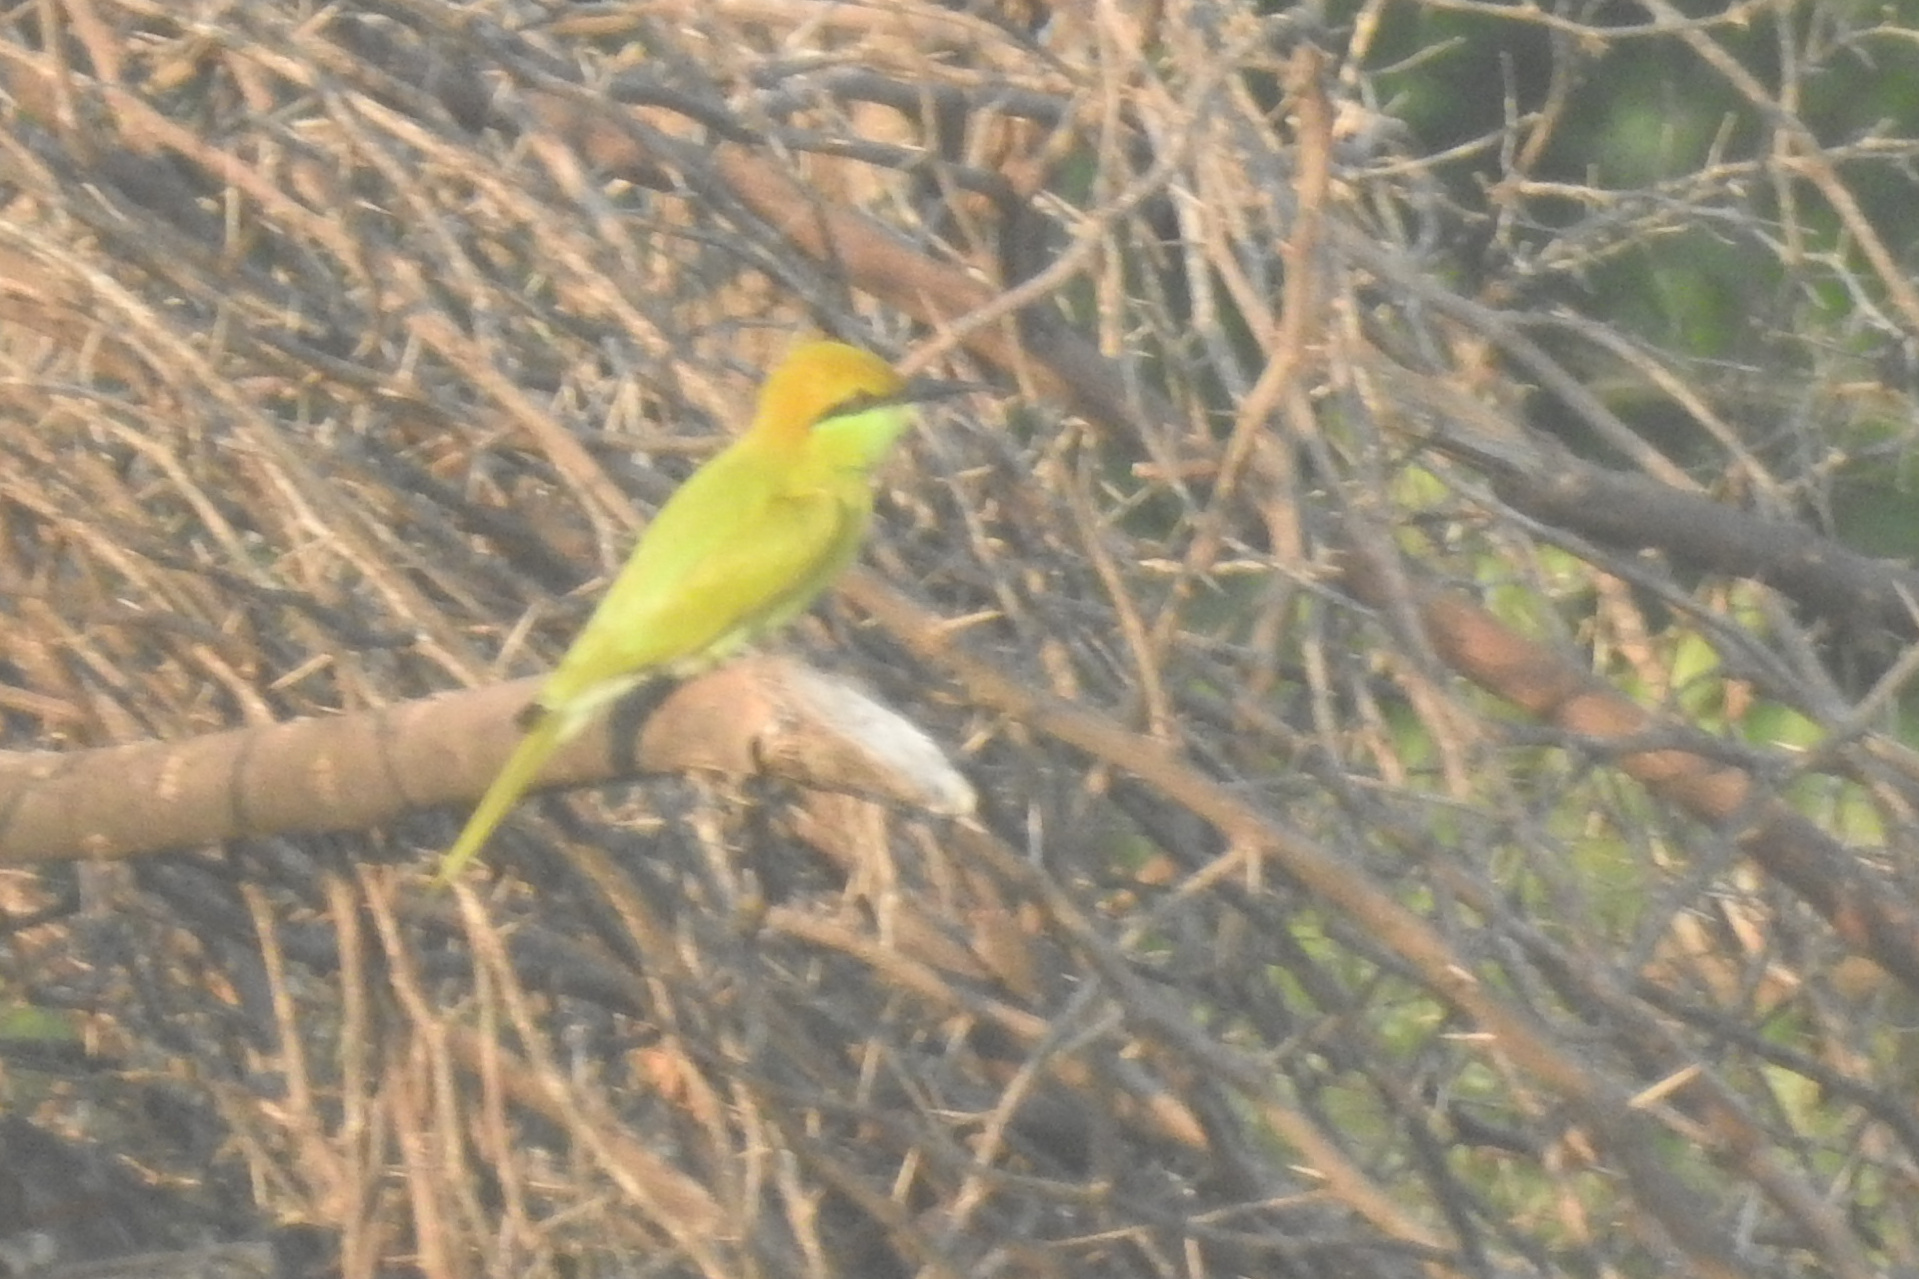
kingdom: Animalia
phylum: Chordata
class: Aves
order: Coraciiformes
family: Meropidae
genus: Merops
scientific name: Merops orientalis
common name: Green bee-eater
